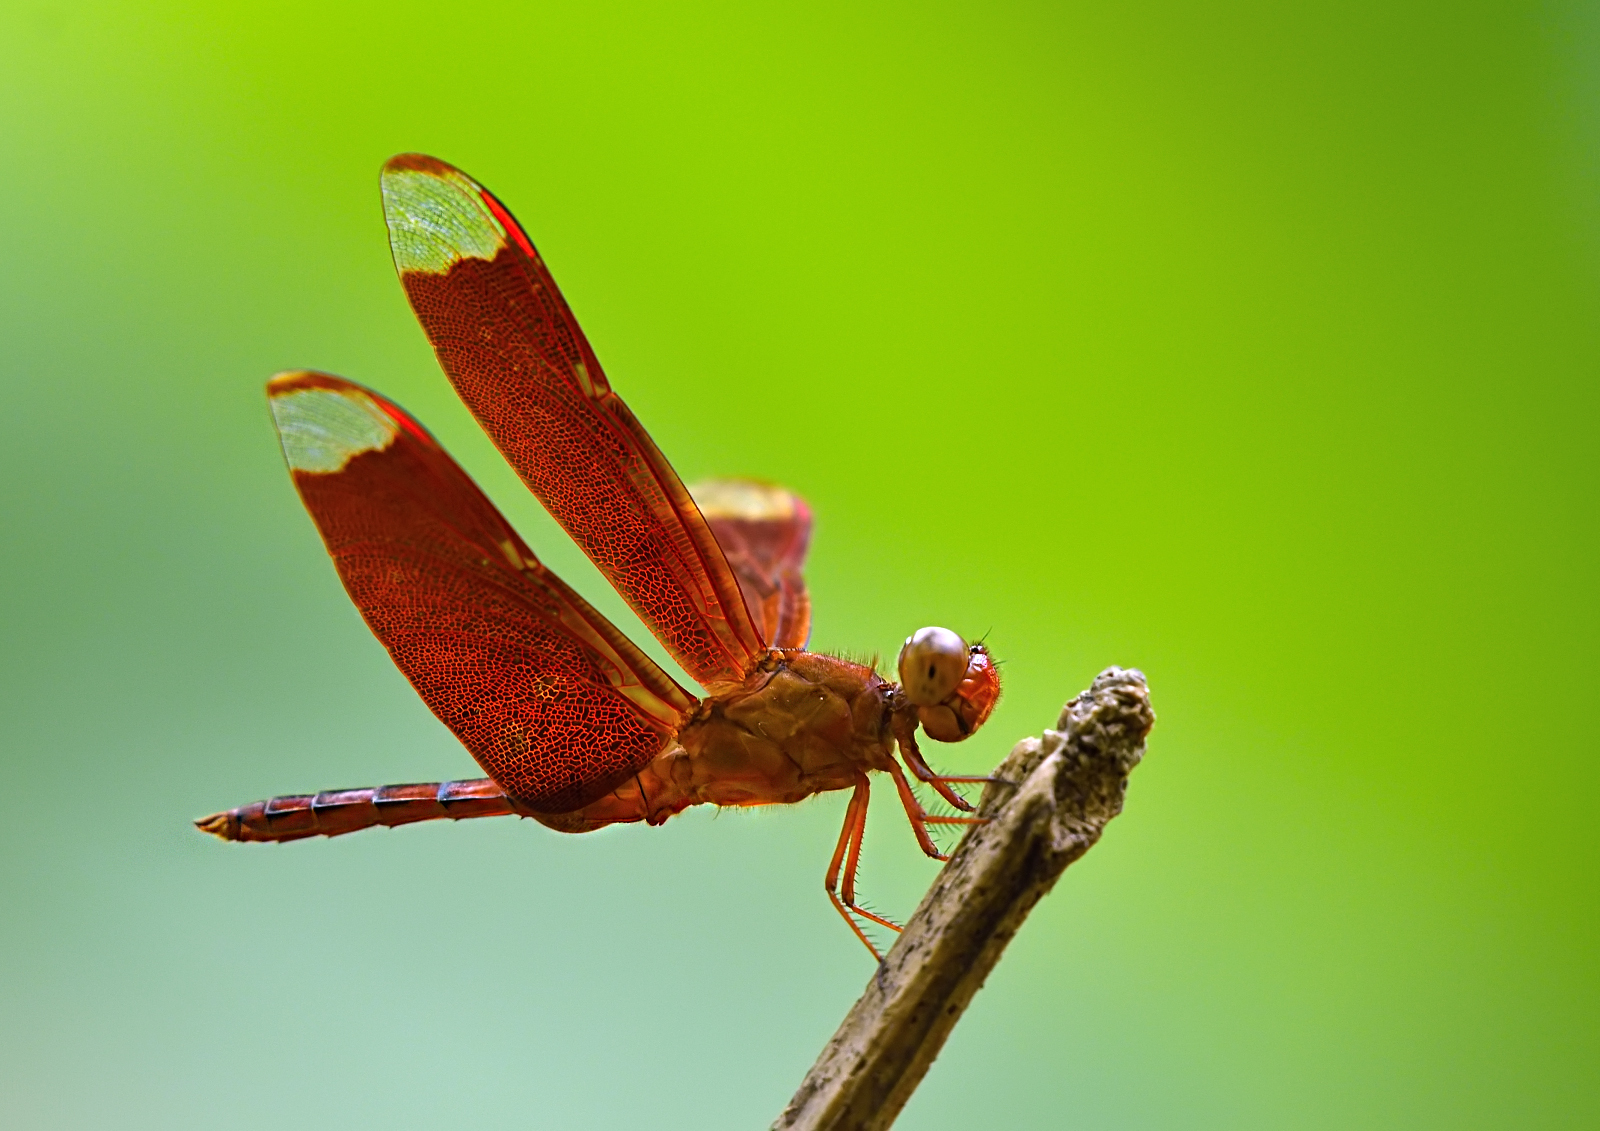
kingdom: Animalia
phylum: Arthropoda
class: Insecta
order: Odonata
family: Libellulidae
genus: Neurothemis
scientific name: Neurothemis fulvia
